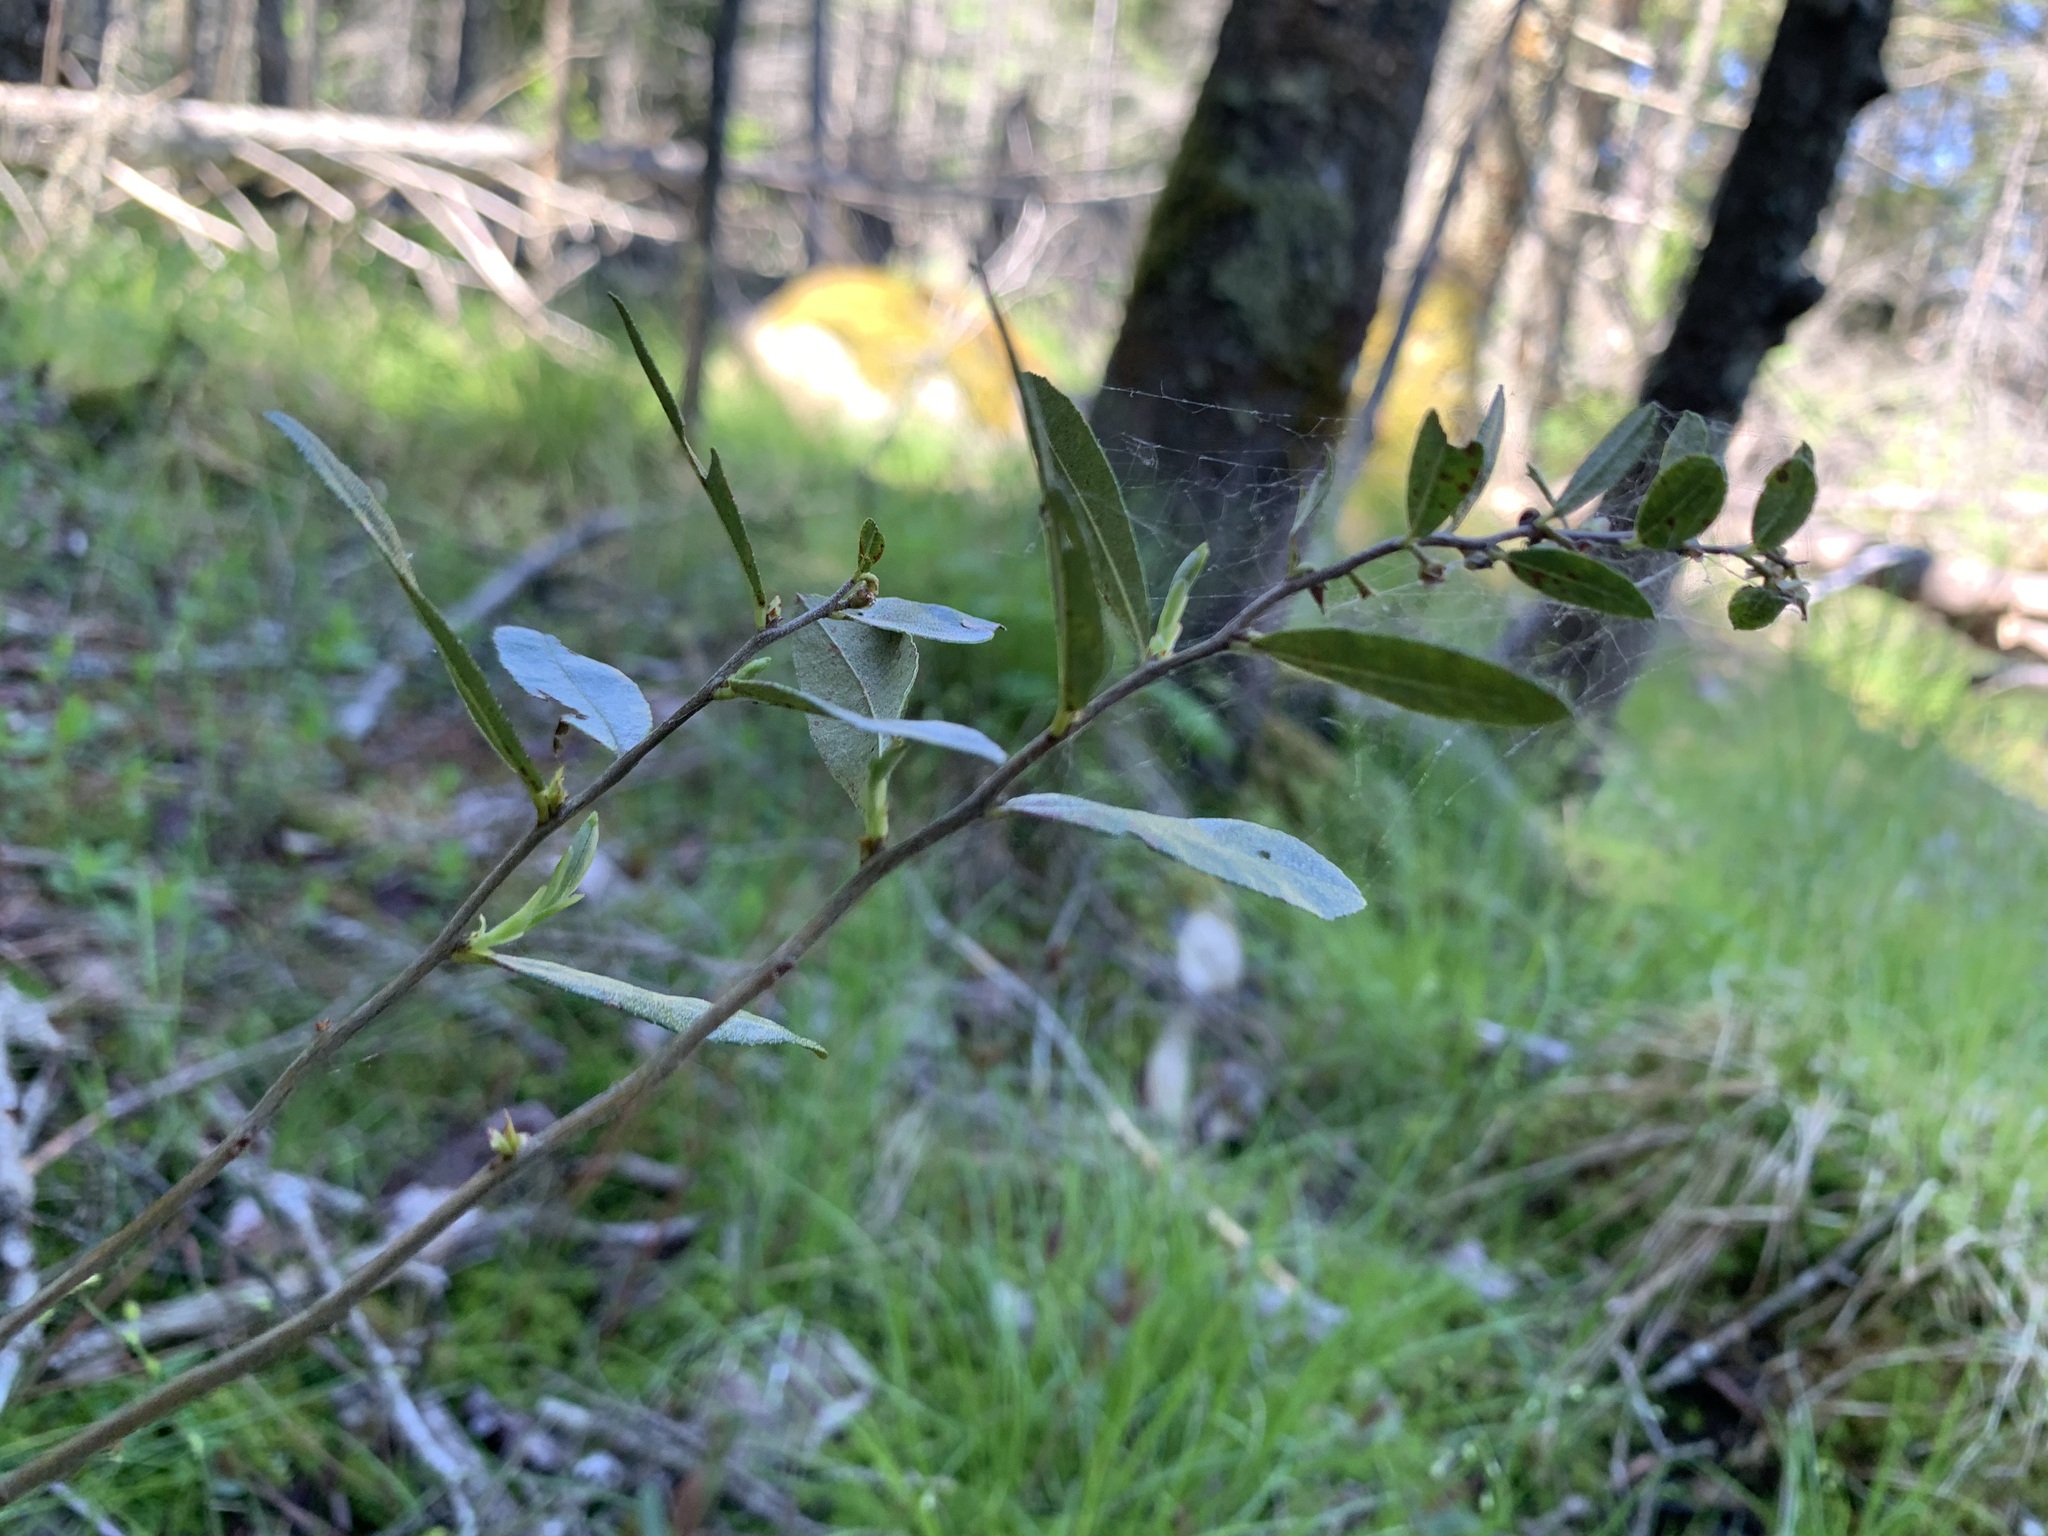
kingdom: Plantae
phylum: Tracheophyta
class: Magnoliopsida
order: Ericales
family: Ericaceae
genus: Chamaedaphne
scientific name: Chamaedaphne calyculata
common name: Leatherleaf
